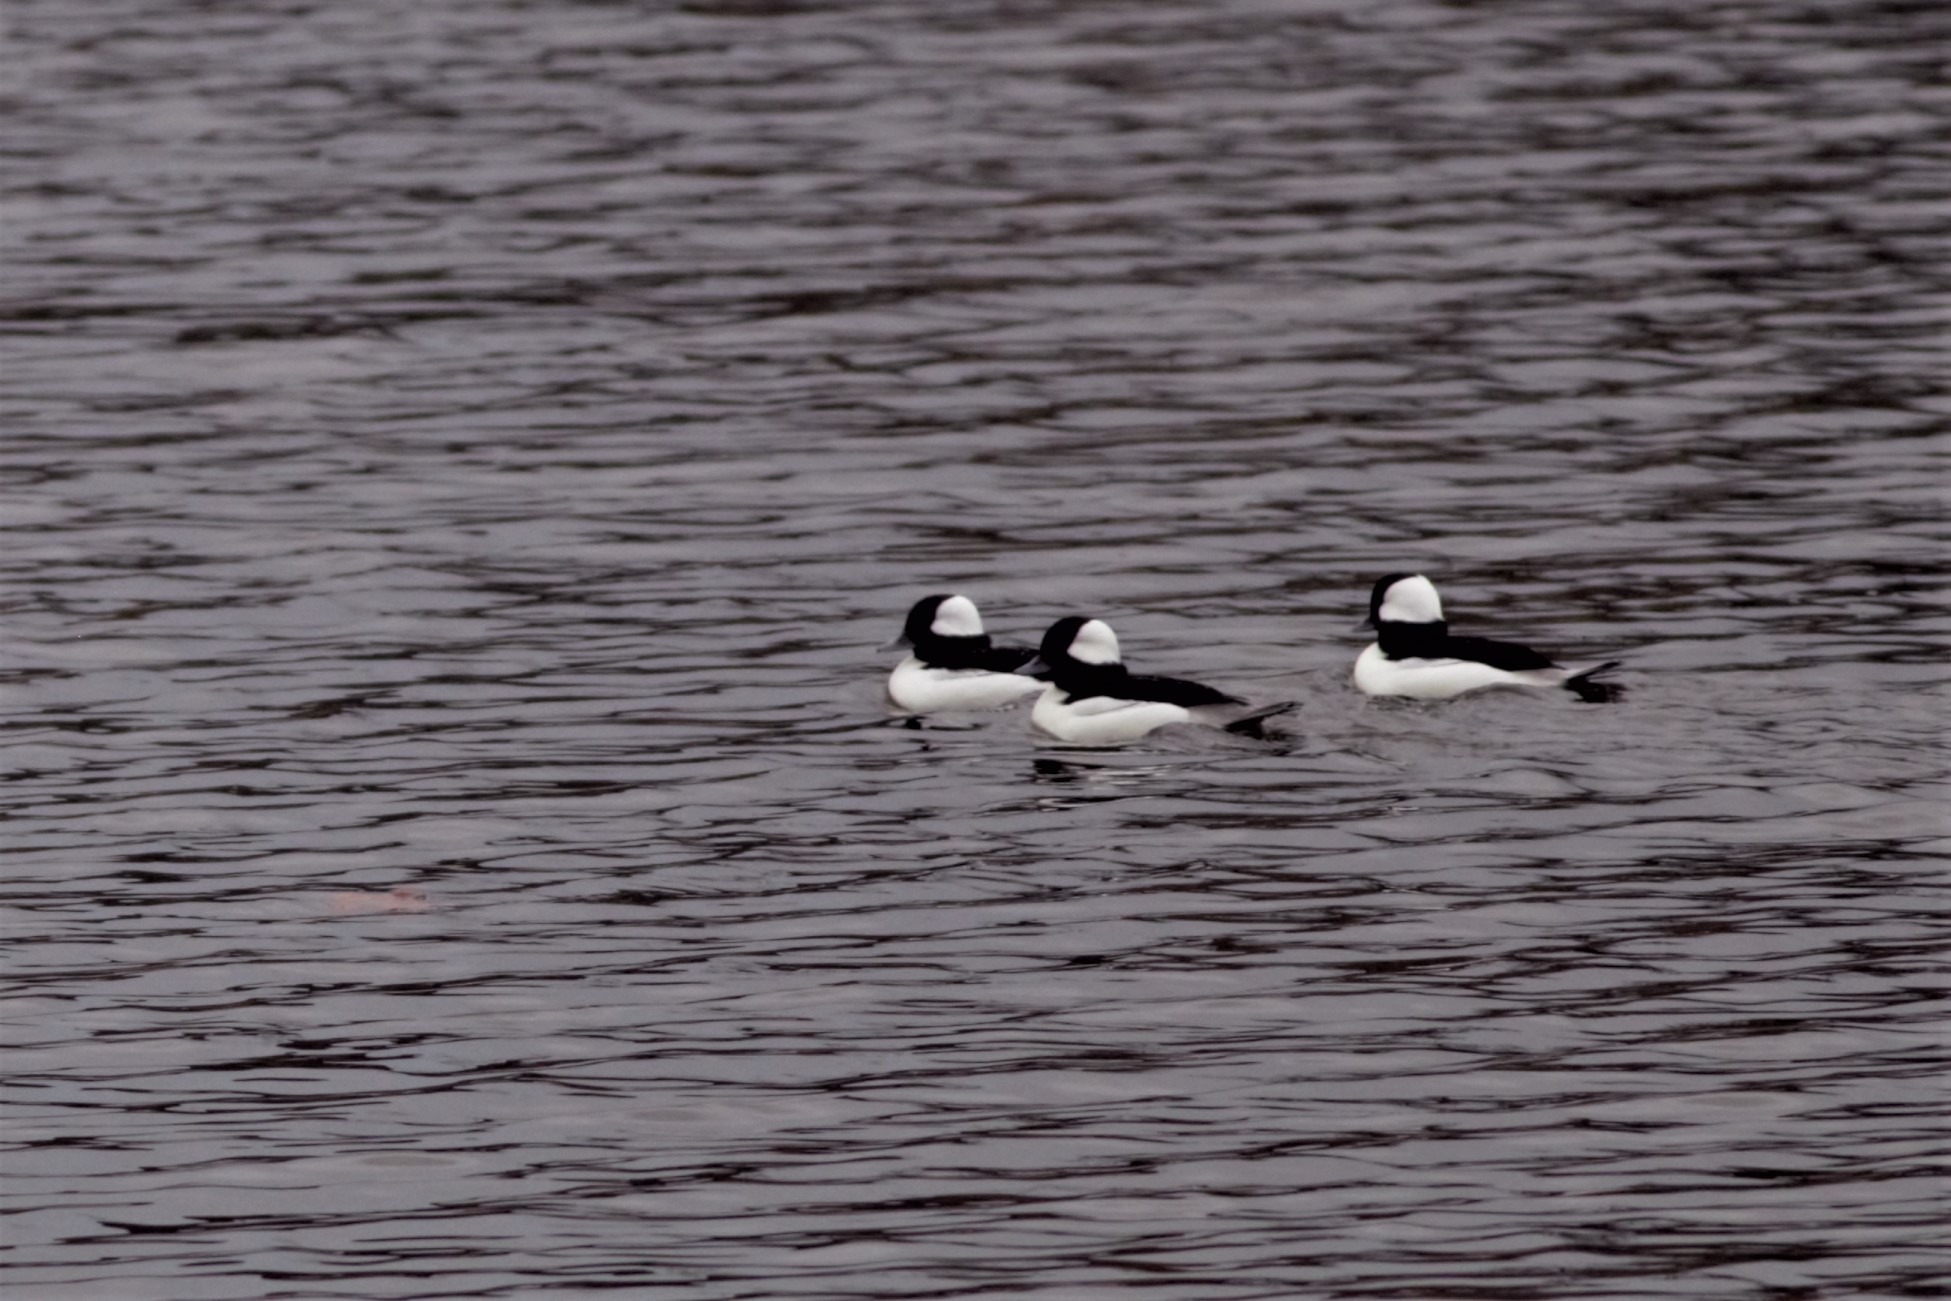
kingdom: Animalia
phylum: Chordata
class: Aves
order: Anseriformes
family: Anatidae
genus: Bucephala
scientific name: Bucephala albeola
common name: Bufflehead
